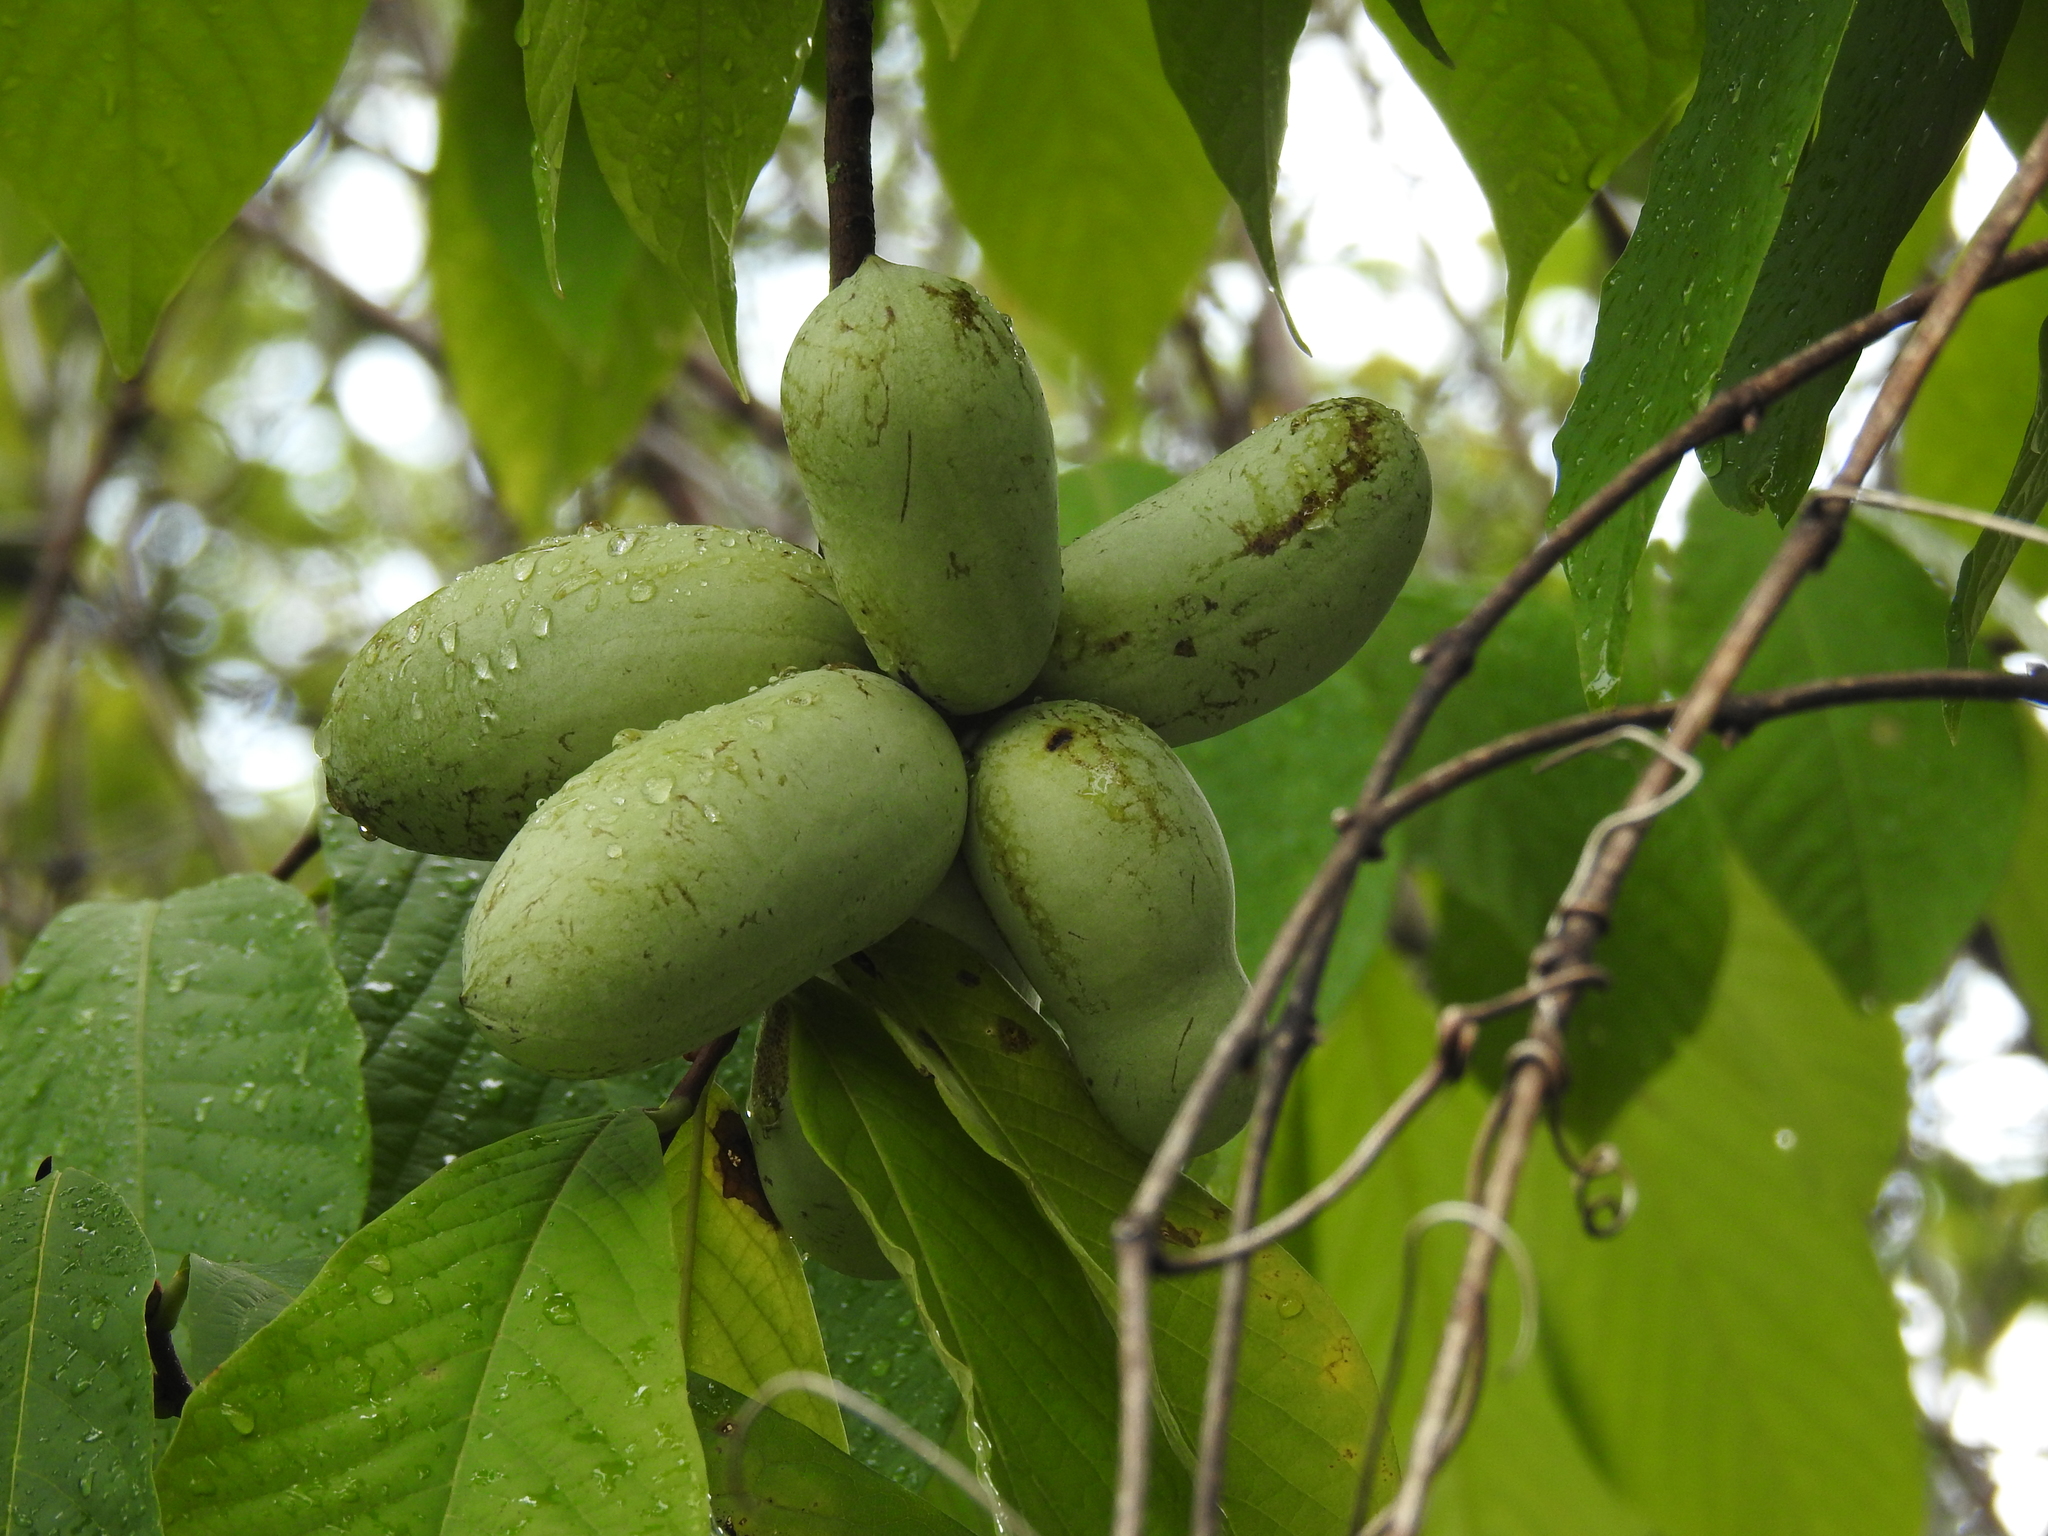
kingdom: Plantae
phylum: Tracheophyta
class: Magnoliopsida
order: Magnoliales
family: Annonaceae
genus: Asimina
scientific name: Asimina triloba
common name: Dog-banana
